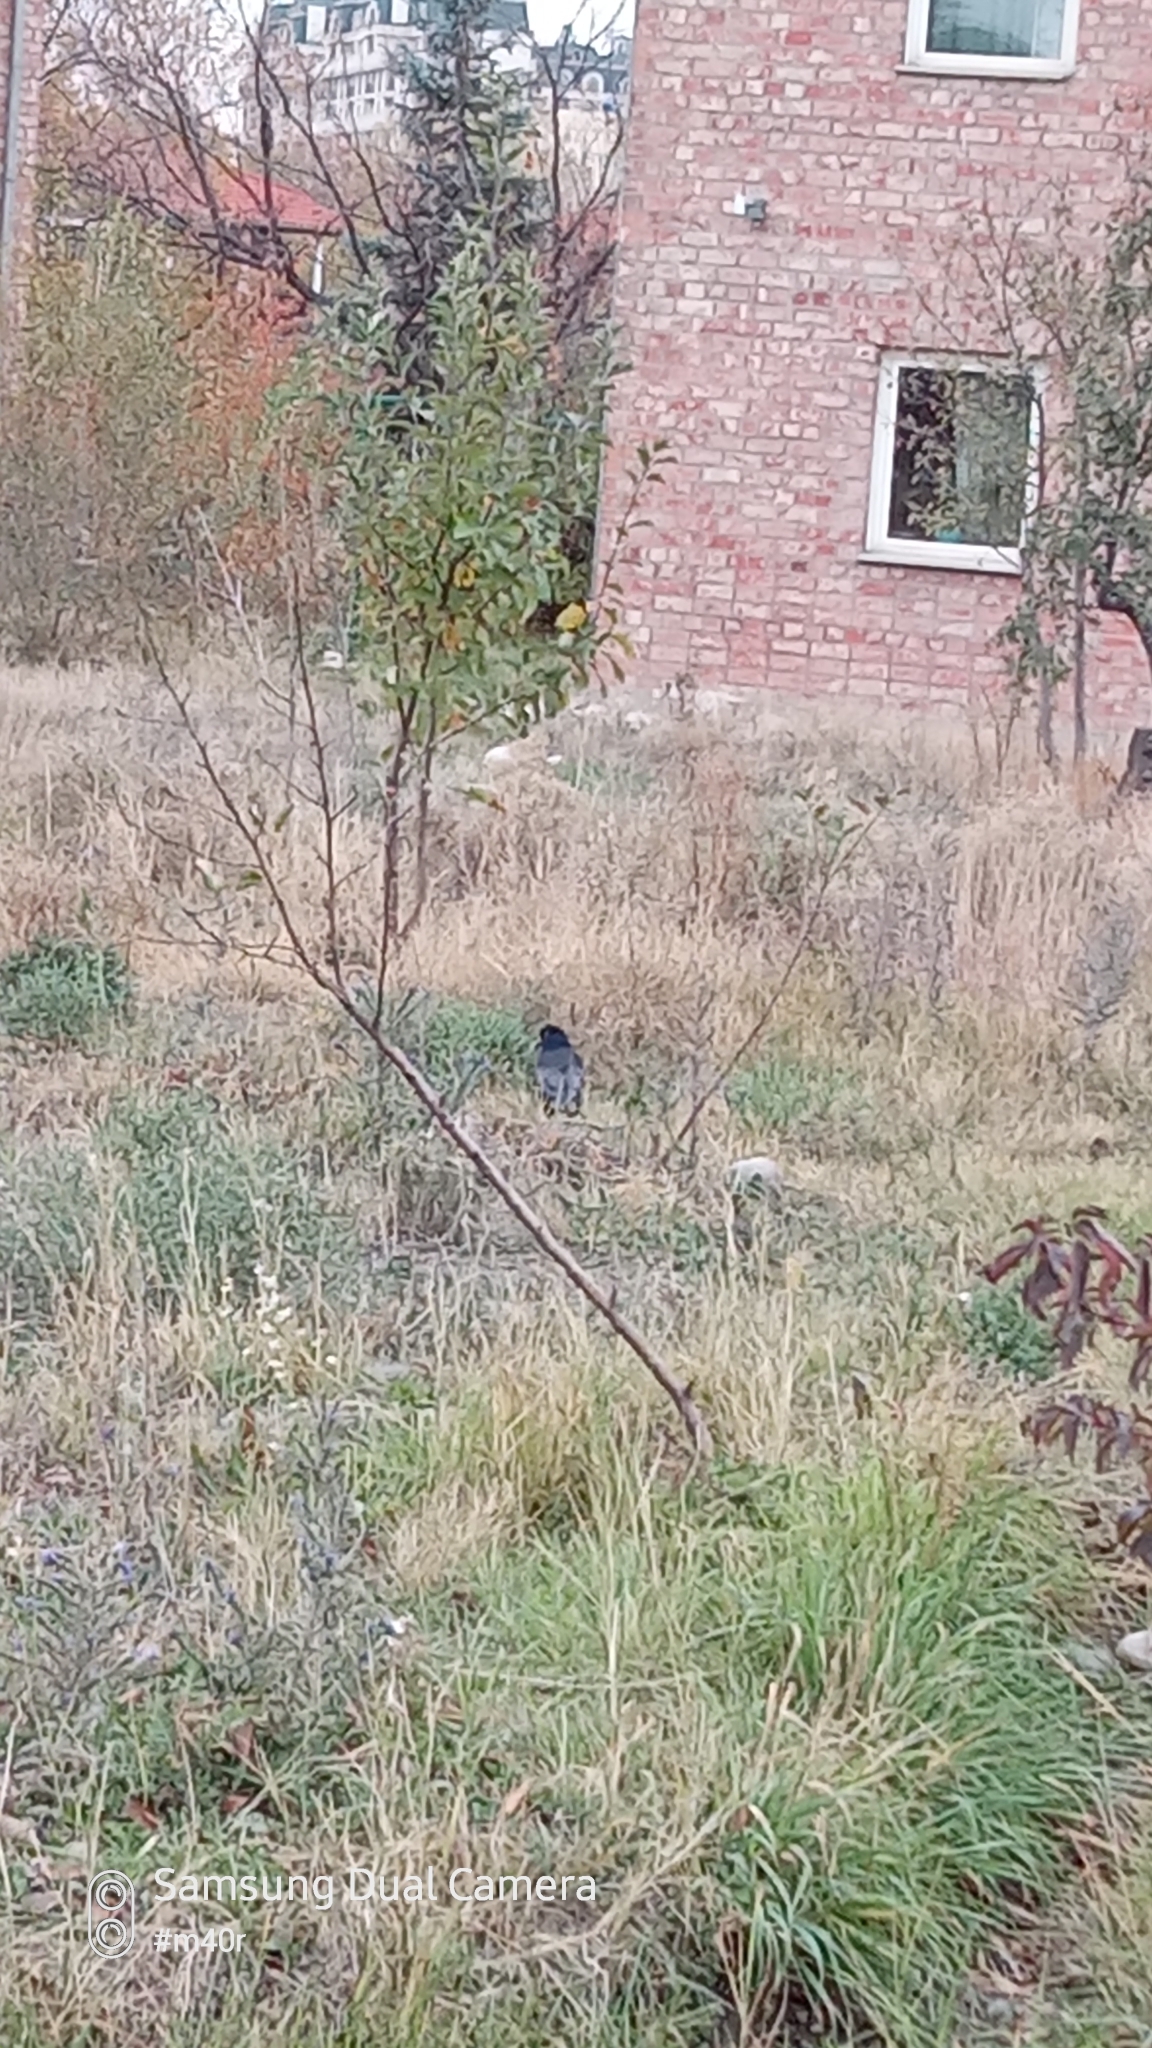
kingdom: Animalia
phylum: Chordata
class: Aves
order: Passeriformes
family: Corvidae
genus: Corvus
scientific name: Corvus frugilegus
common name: Rook
